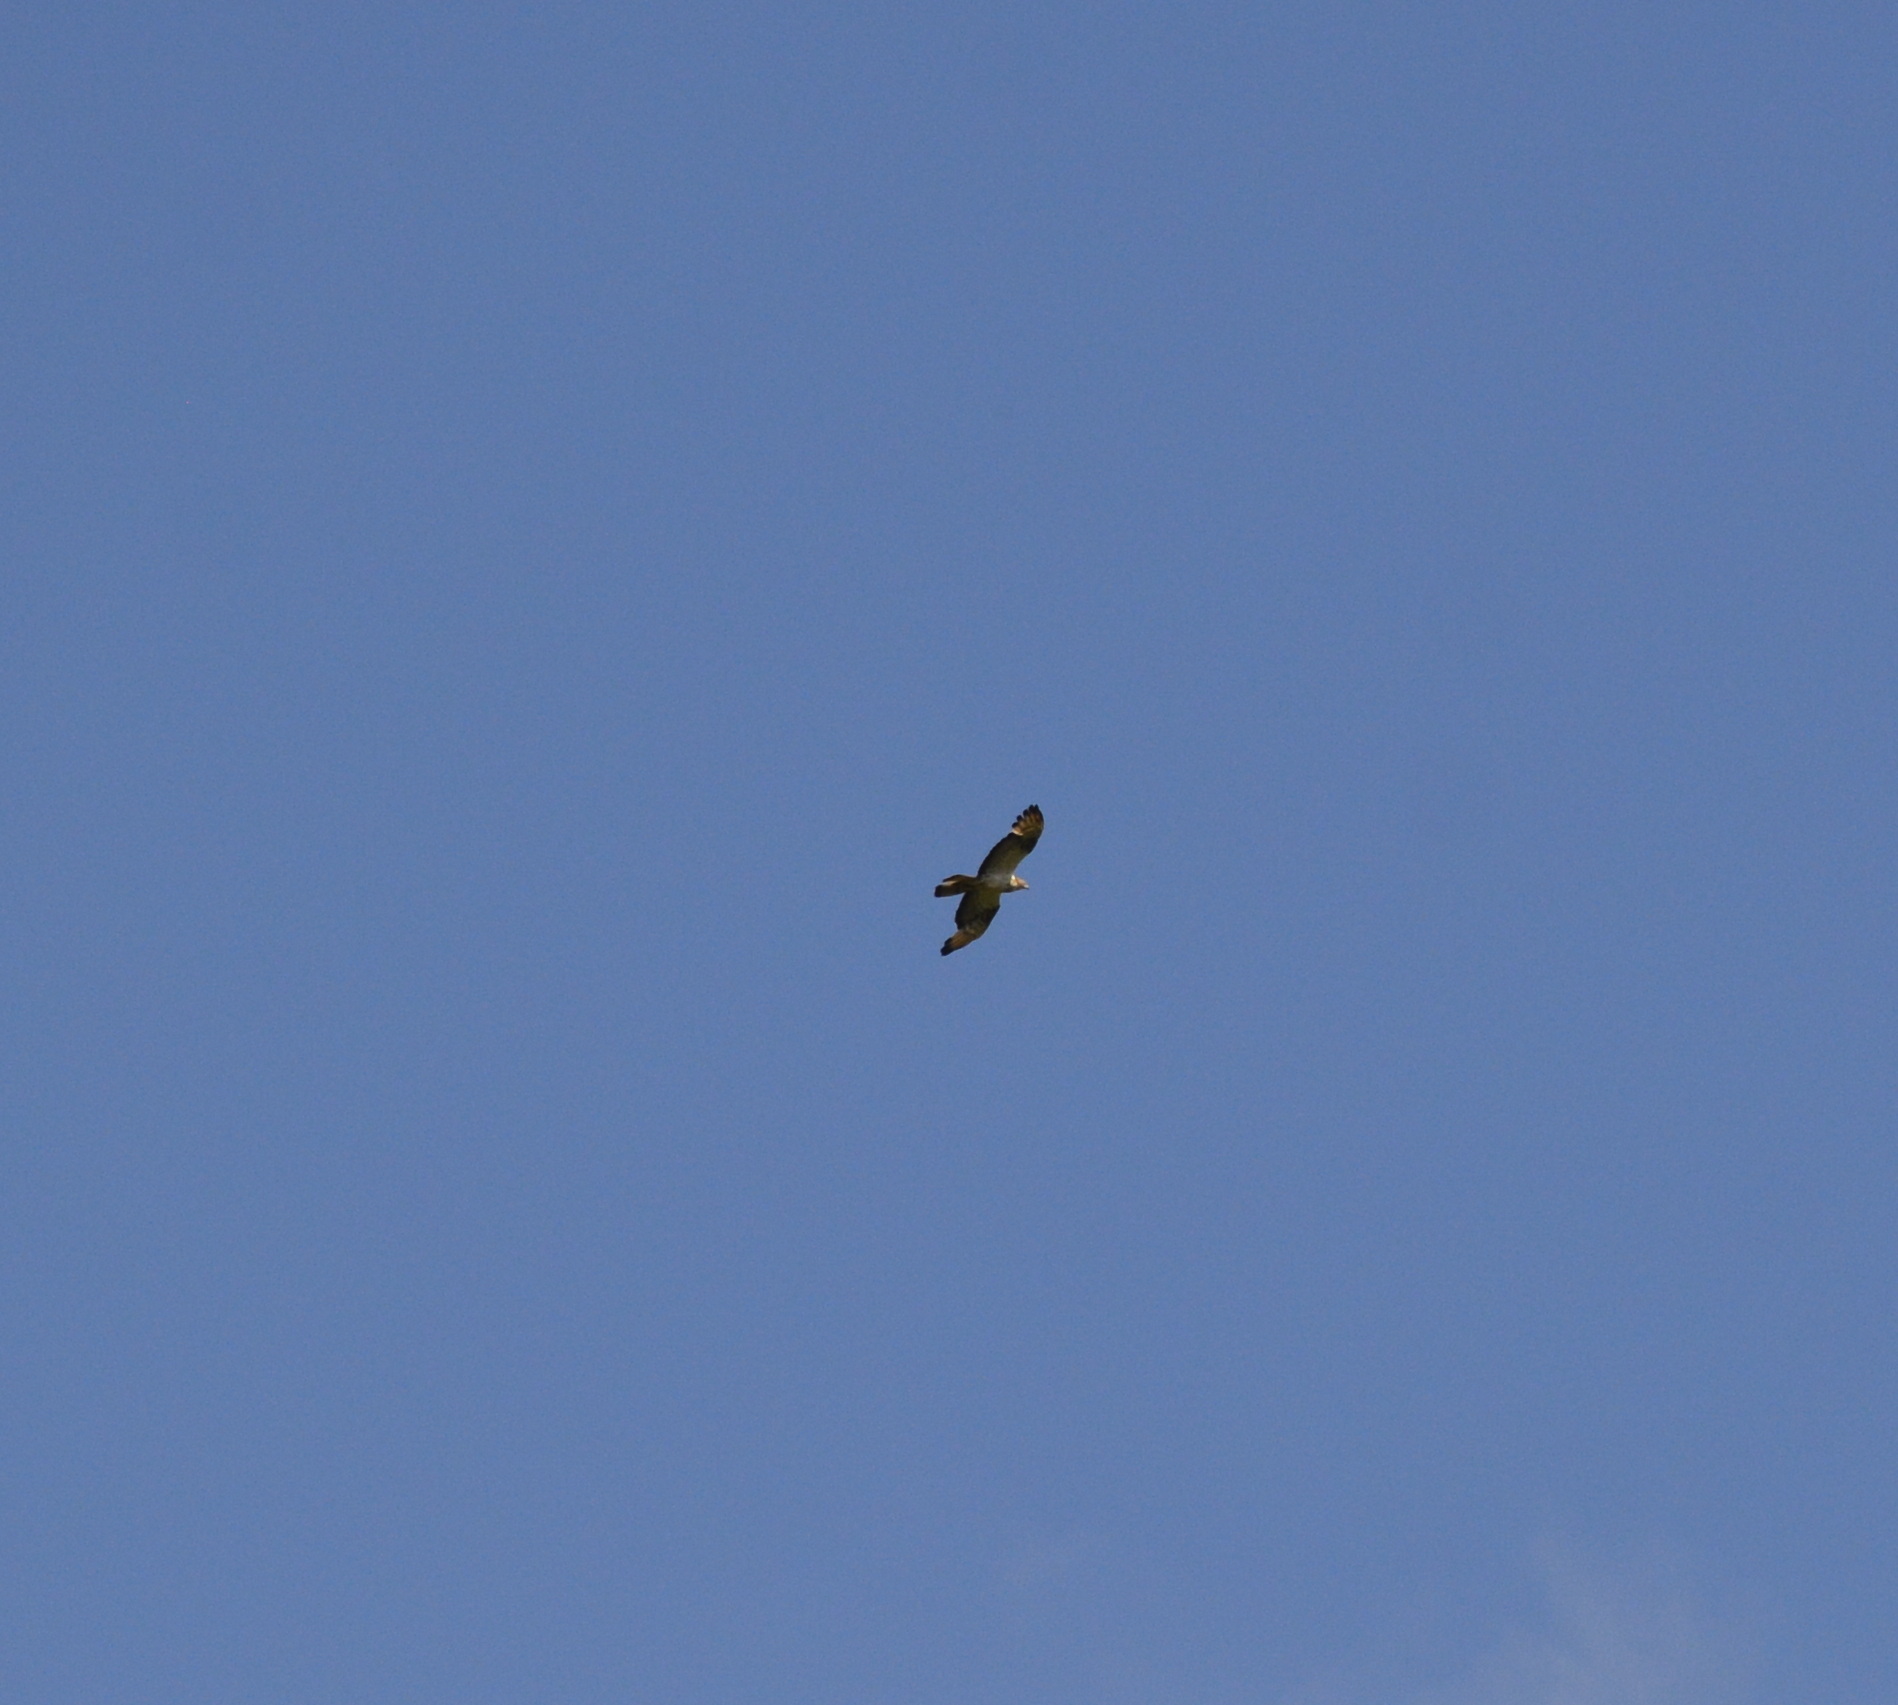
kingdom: Animalia
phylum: Chordata
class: Aves
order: Accipitriformes
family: Accipitridae
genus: Pernis
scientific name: Pernis apivorus
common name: European honey buzzard
